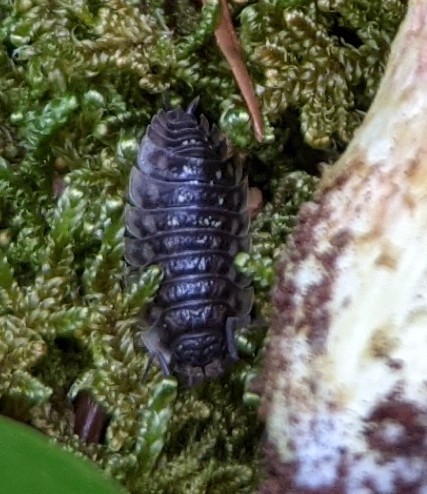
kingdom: Animalia
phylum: Arthropoda
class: Malacostraca
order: Isopoda
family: Oniscidae
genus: Oniscus
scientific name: Oniscus asellus
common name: Common shiny woodlouse
